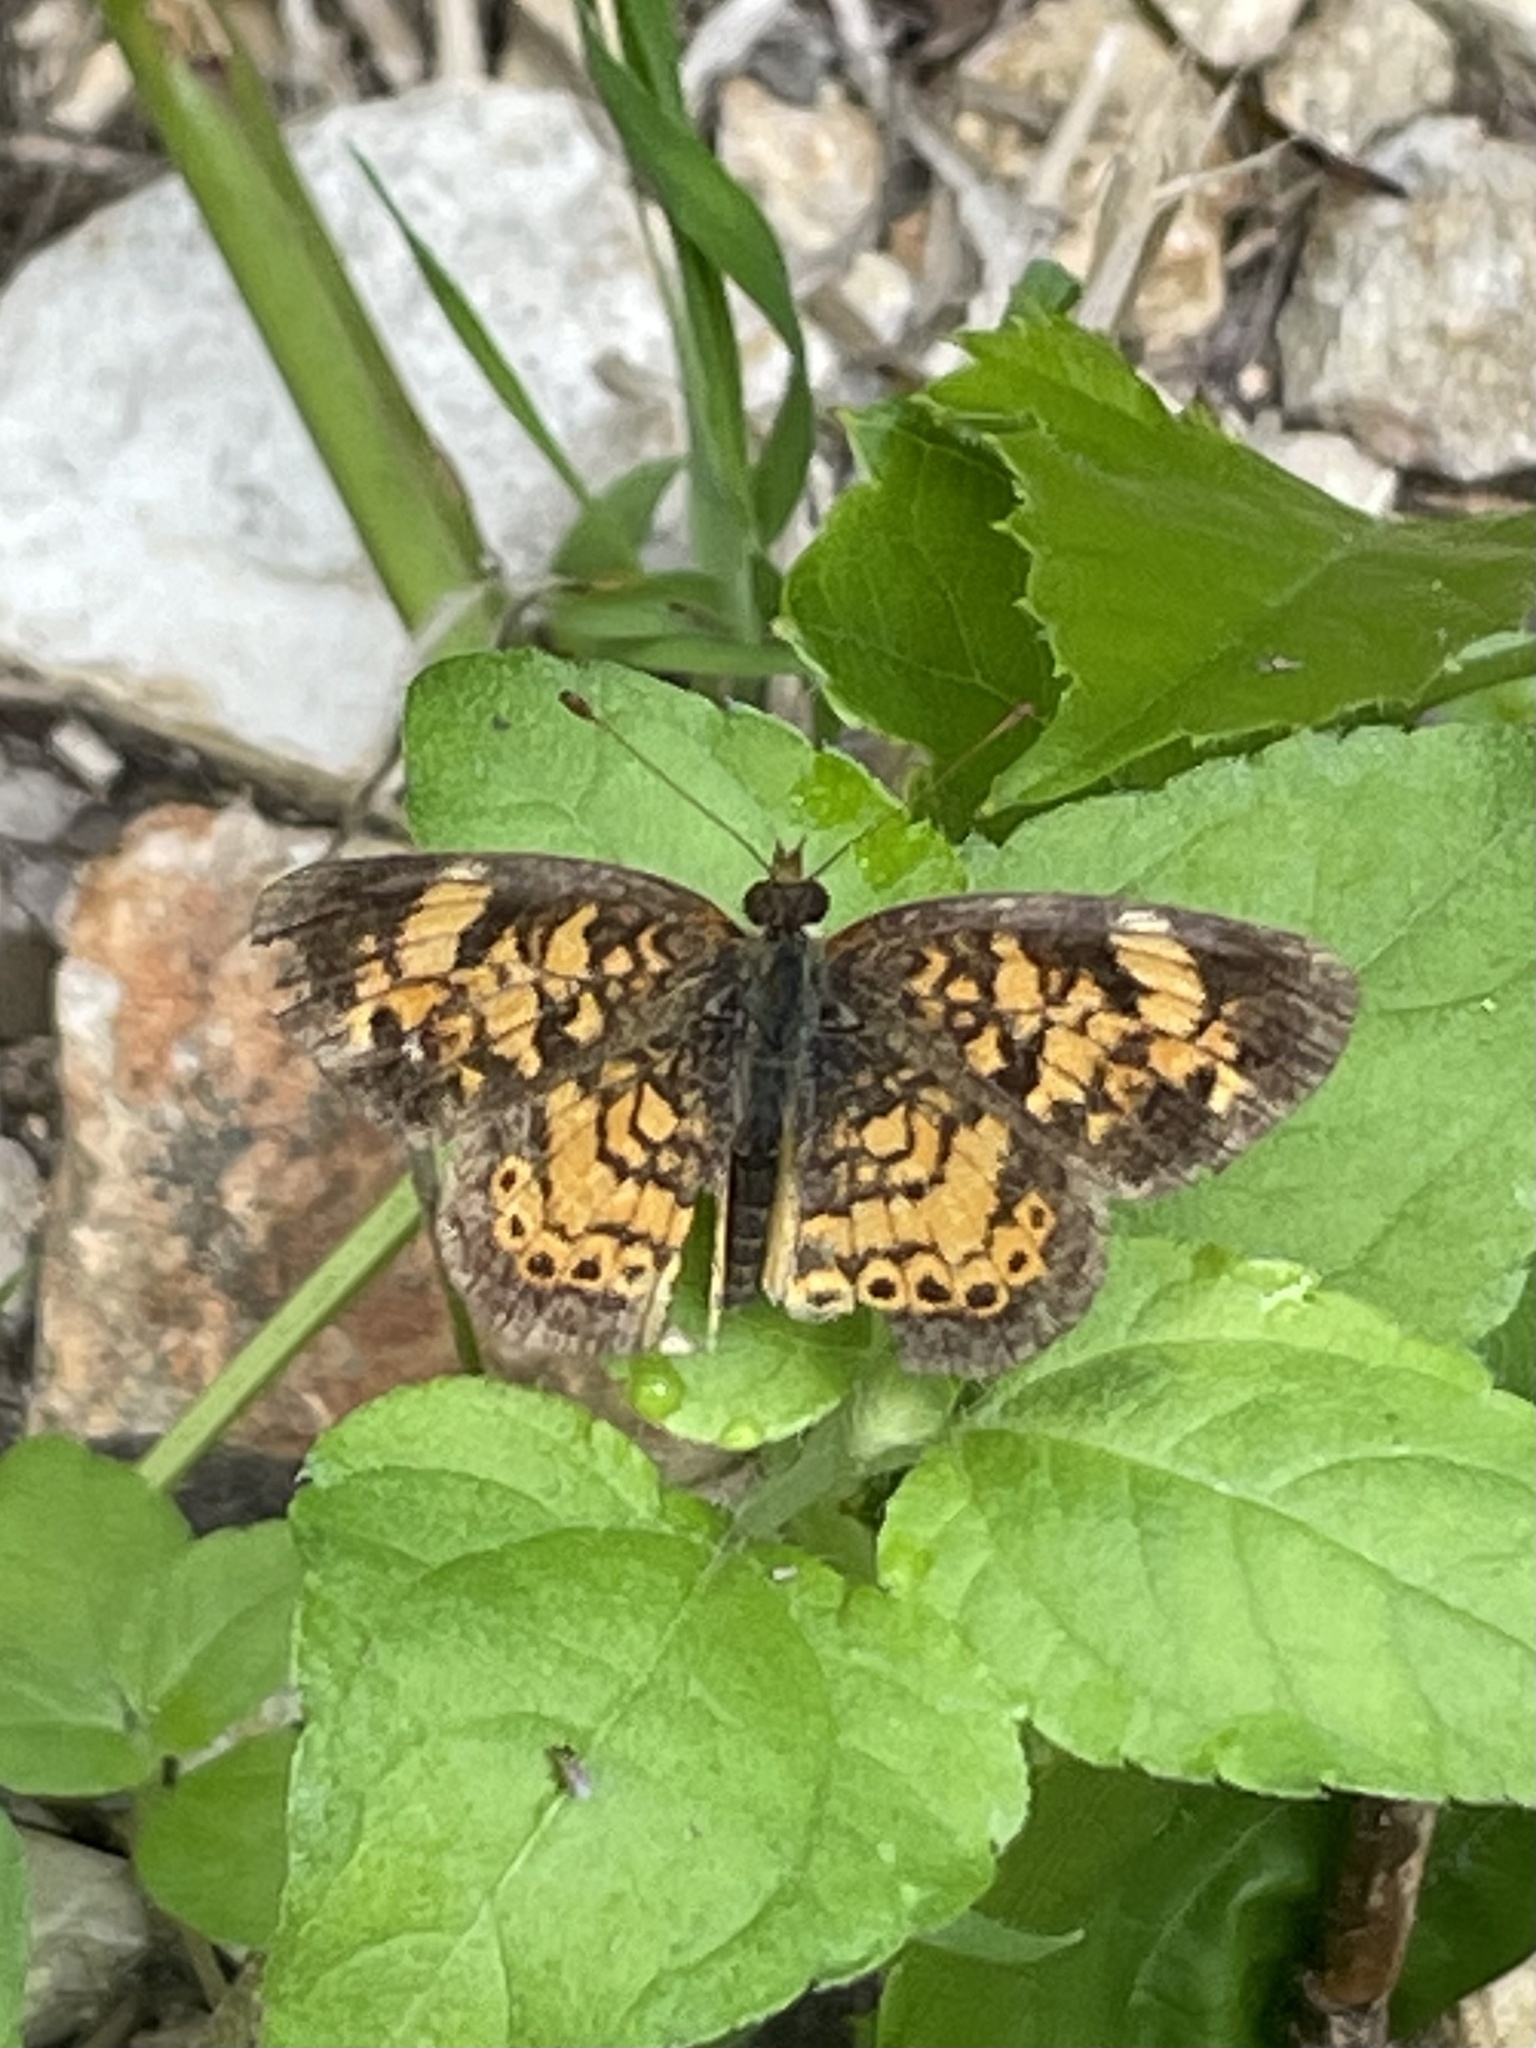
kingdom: Animalia
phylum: Arthropoda
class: Insecta
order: Lepidoptera
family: Nymphalidae
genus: Phyciodes
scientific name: Phyciodes tharos
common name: Pearl crescent
